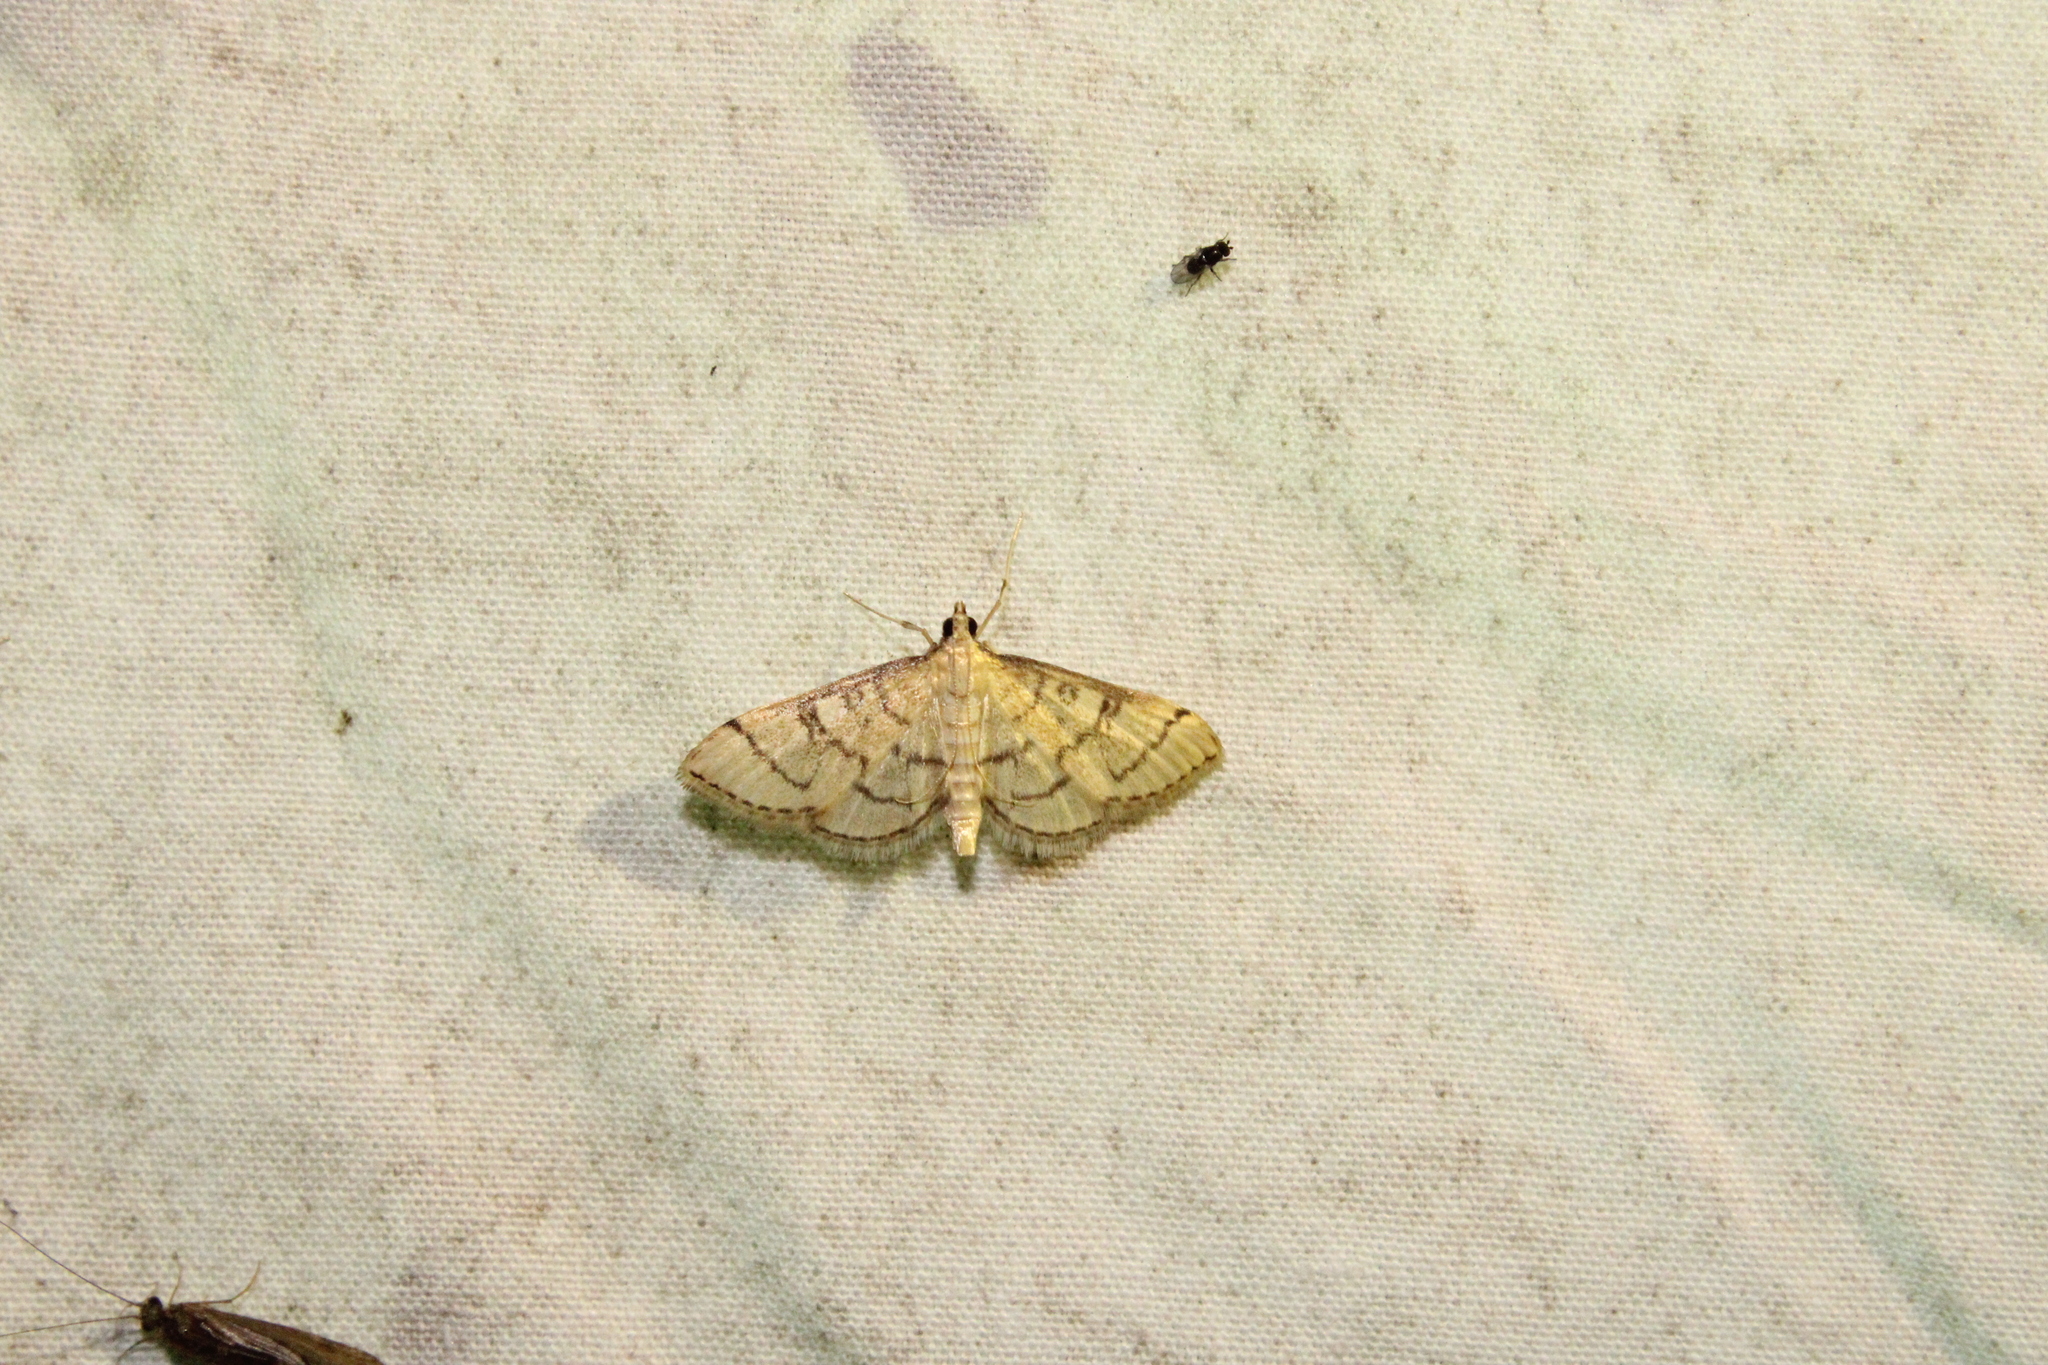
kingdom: Animalia
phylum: Arthropoda
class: Insecta
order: Lepidoptera
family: Crambidae
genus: Lamprosema
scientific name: Lamprosema Blepharomastix ranalis
